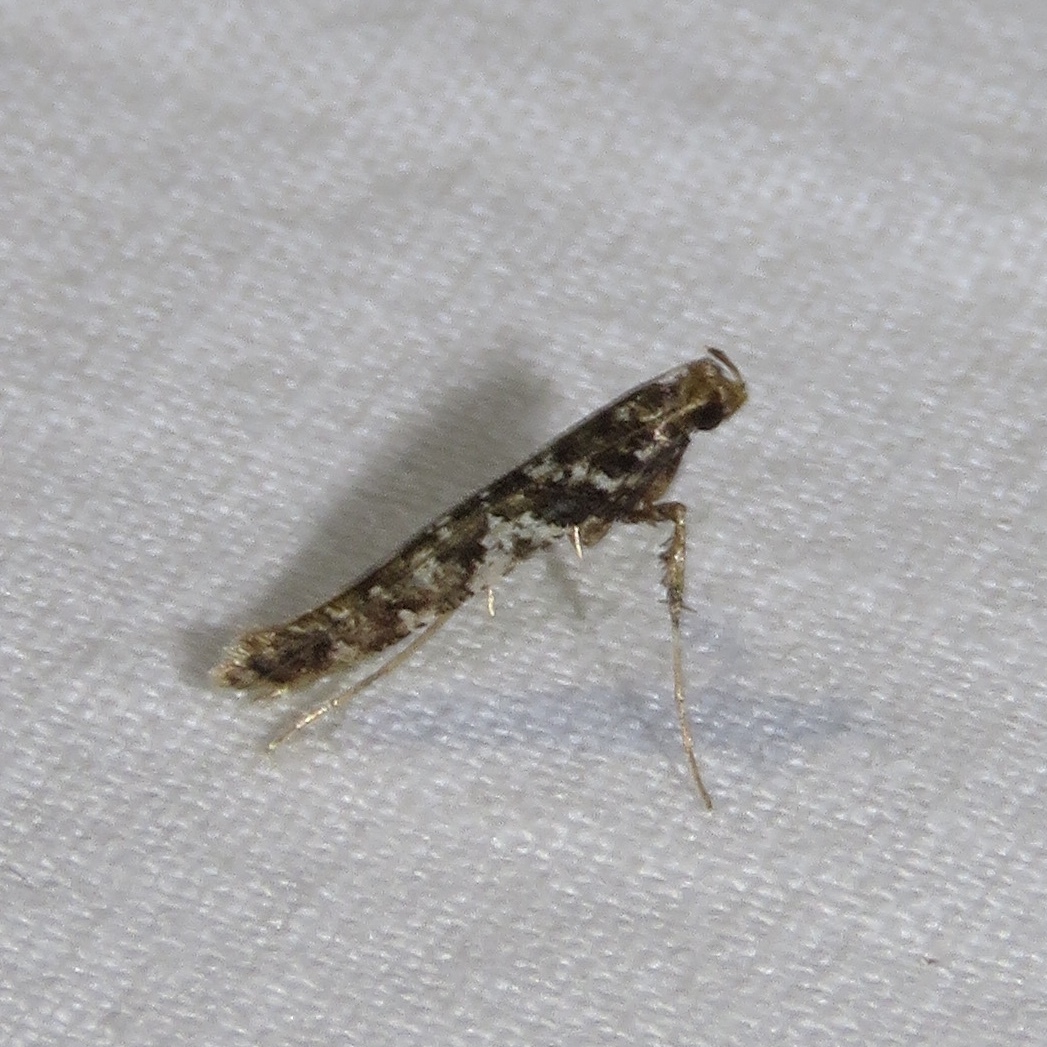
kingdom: Animalia
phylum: Arthropoda
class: Insecta
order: Lepidoptera
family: Gracillariidae
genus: Caloptilia
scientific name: Caloptilia serotinella
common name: Cherry leafroller moth
